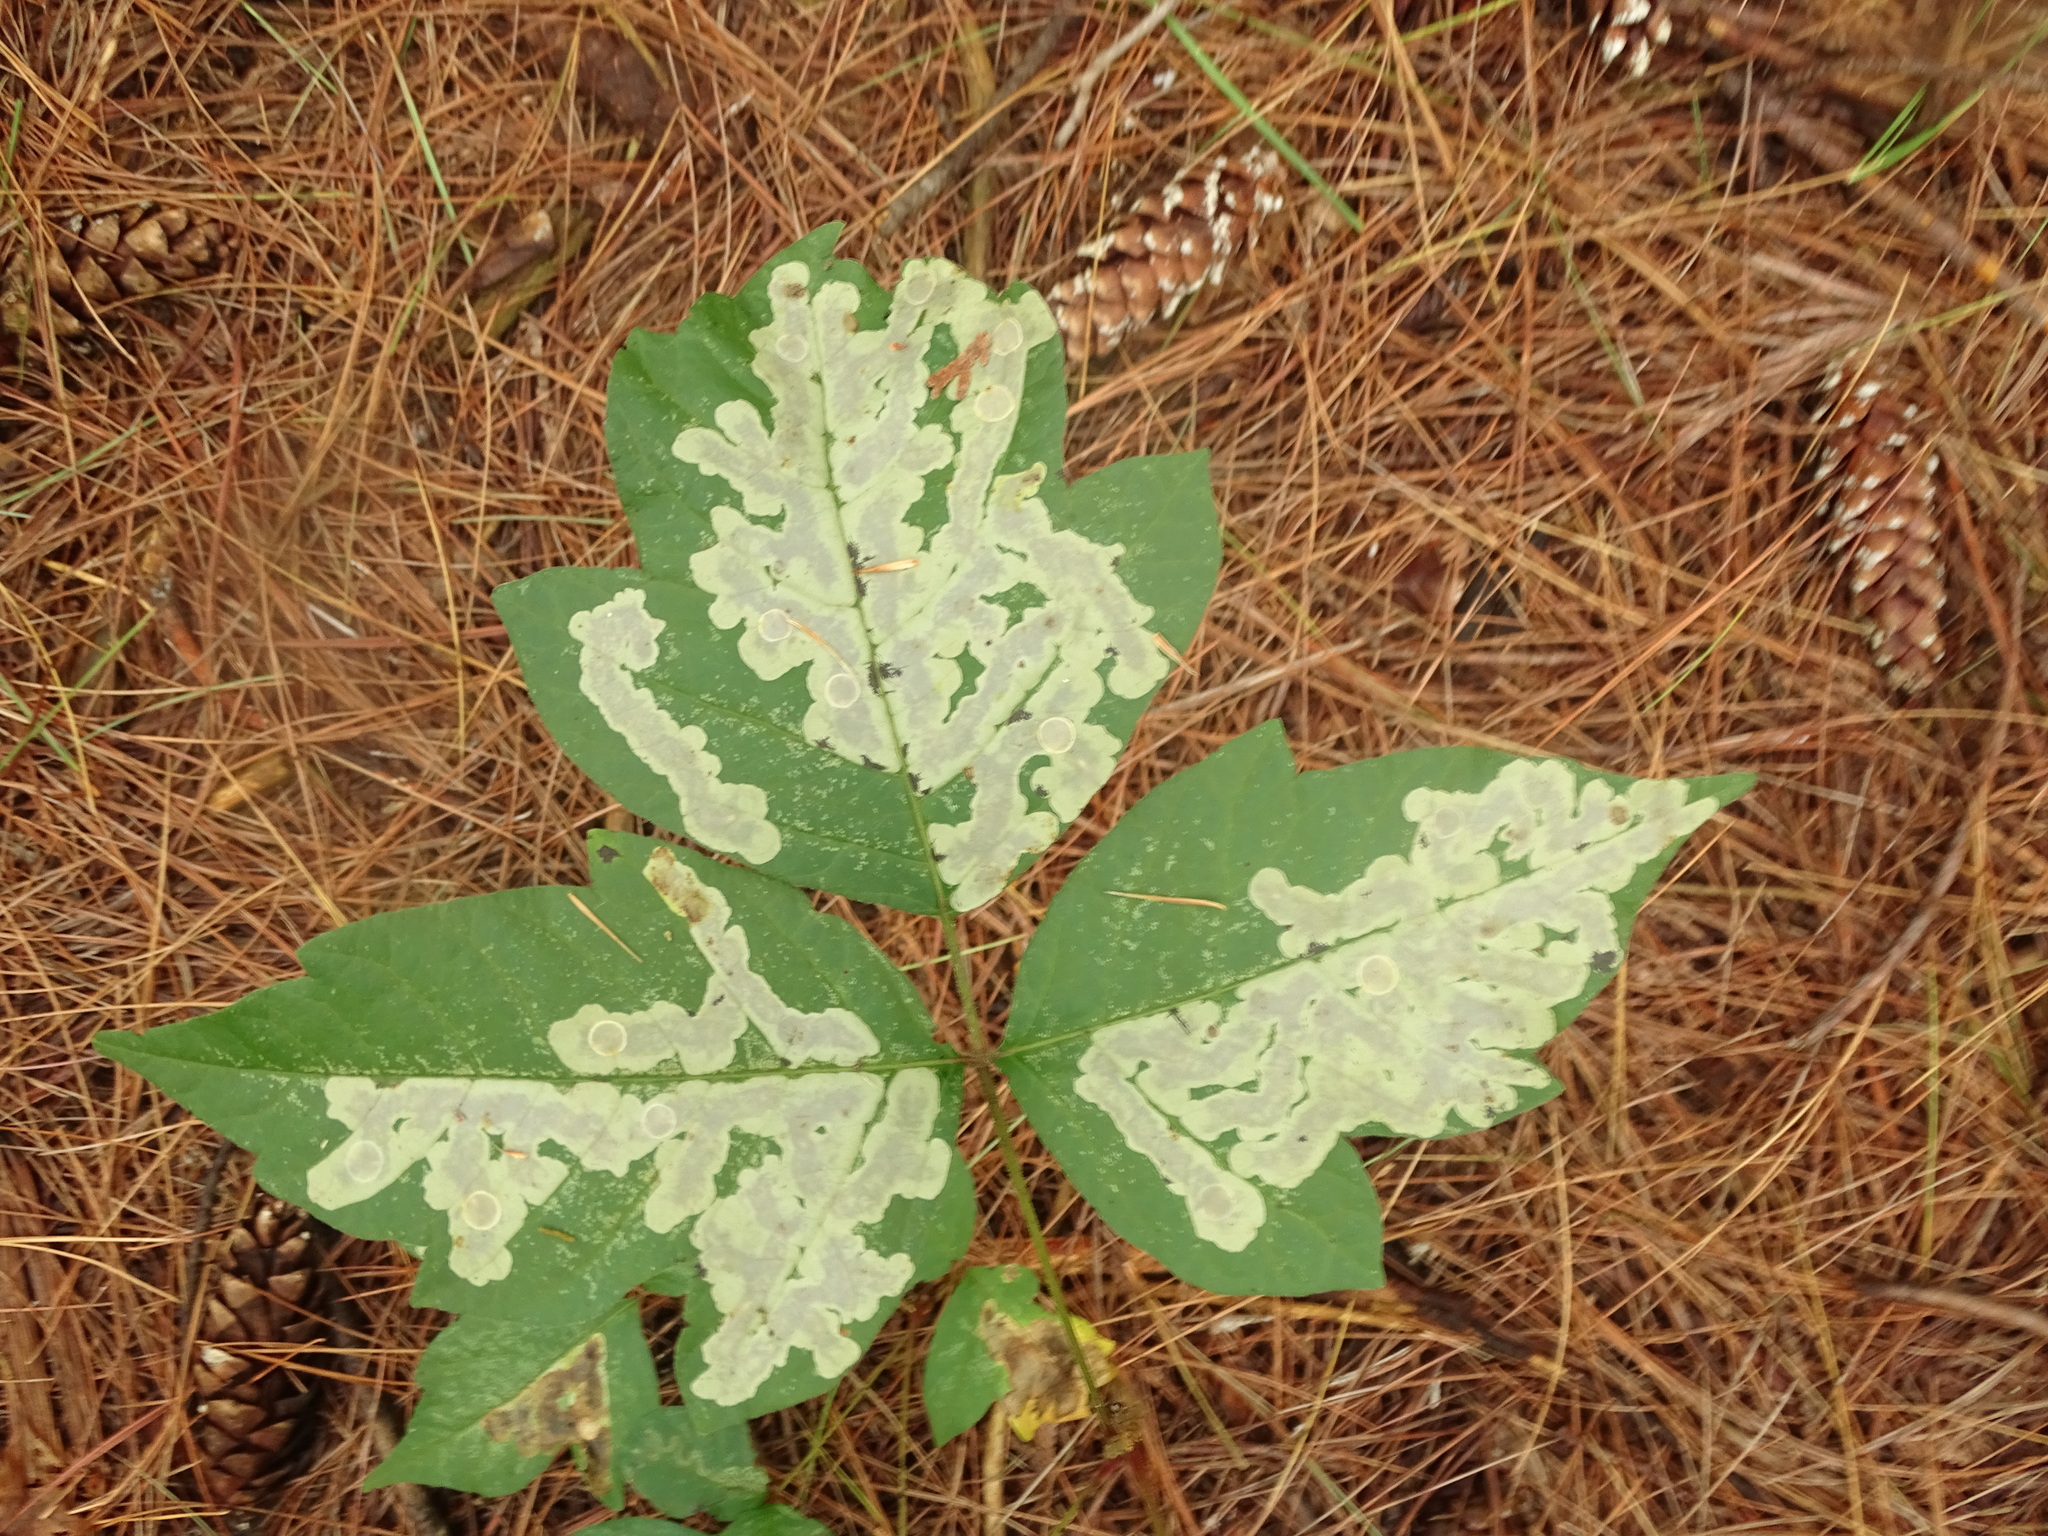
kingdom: Animalia
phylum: Arthropoda
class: Insecta
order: Lepidoptera
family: Gracillariidae
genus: Cameraria
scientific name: Cameraria guttifinitella
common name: Poison ivy leaf-miner moth
